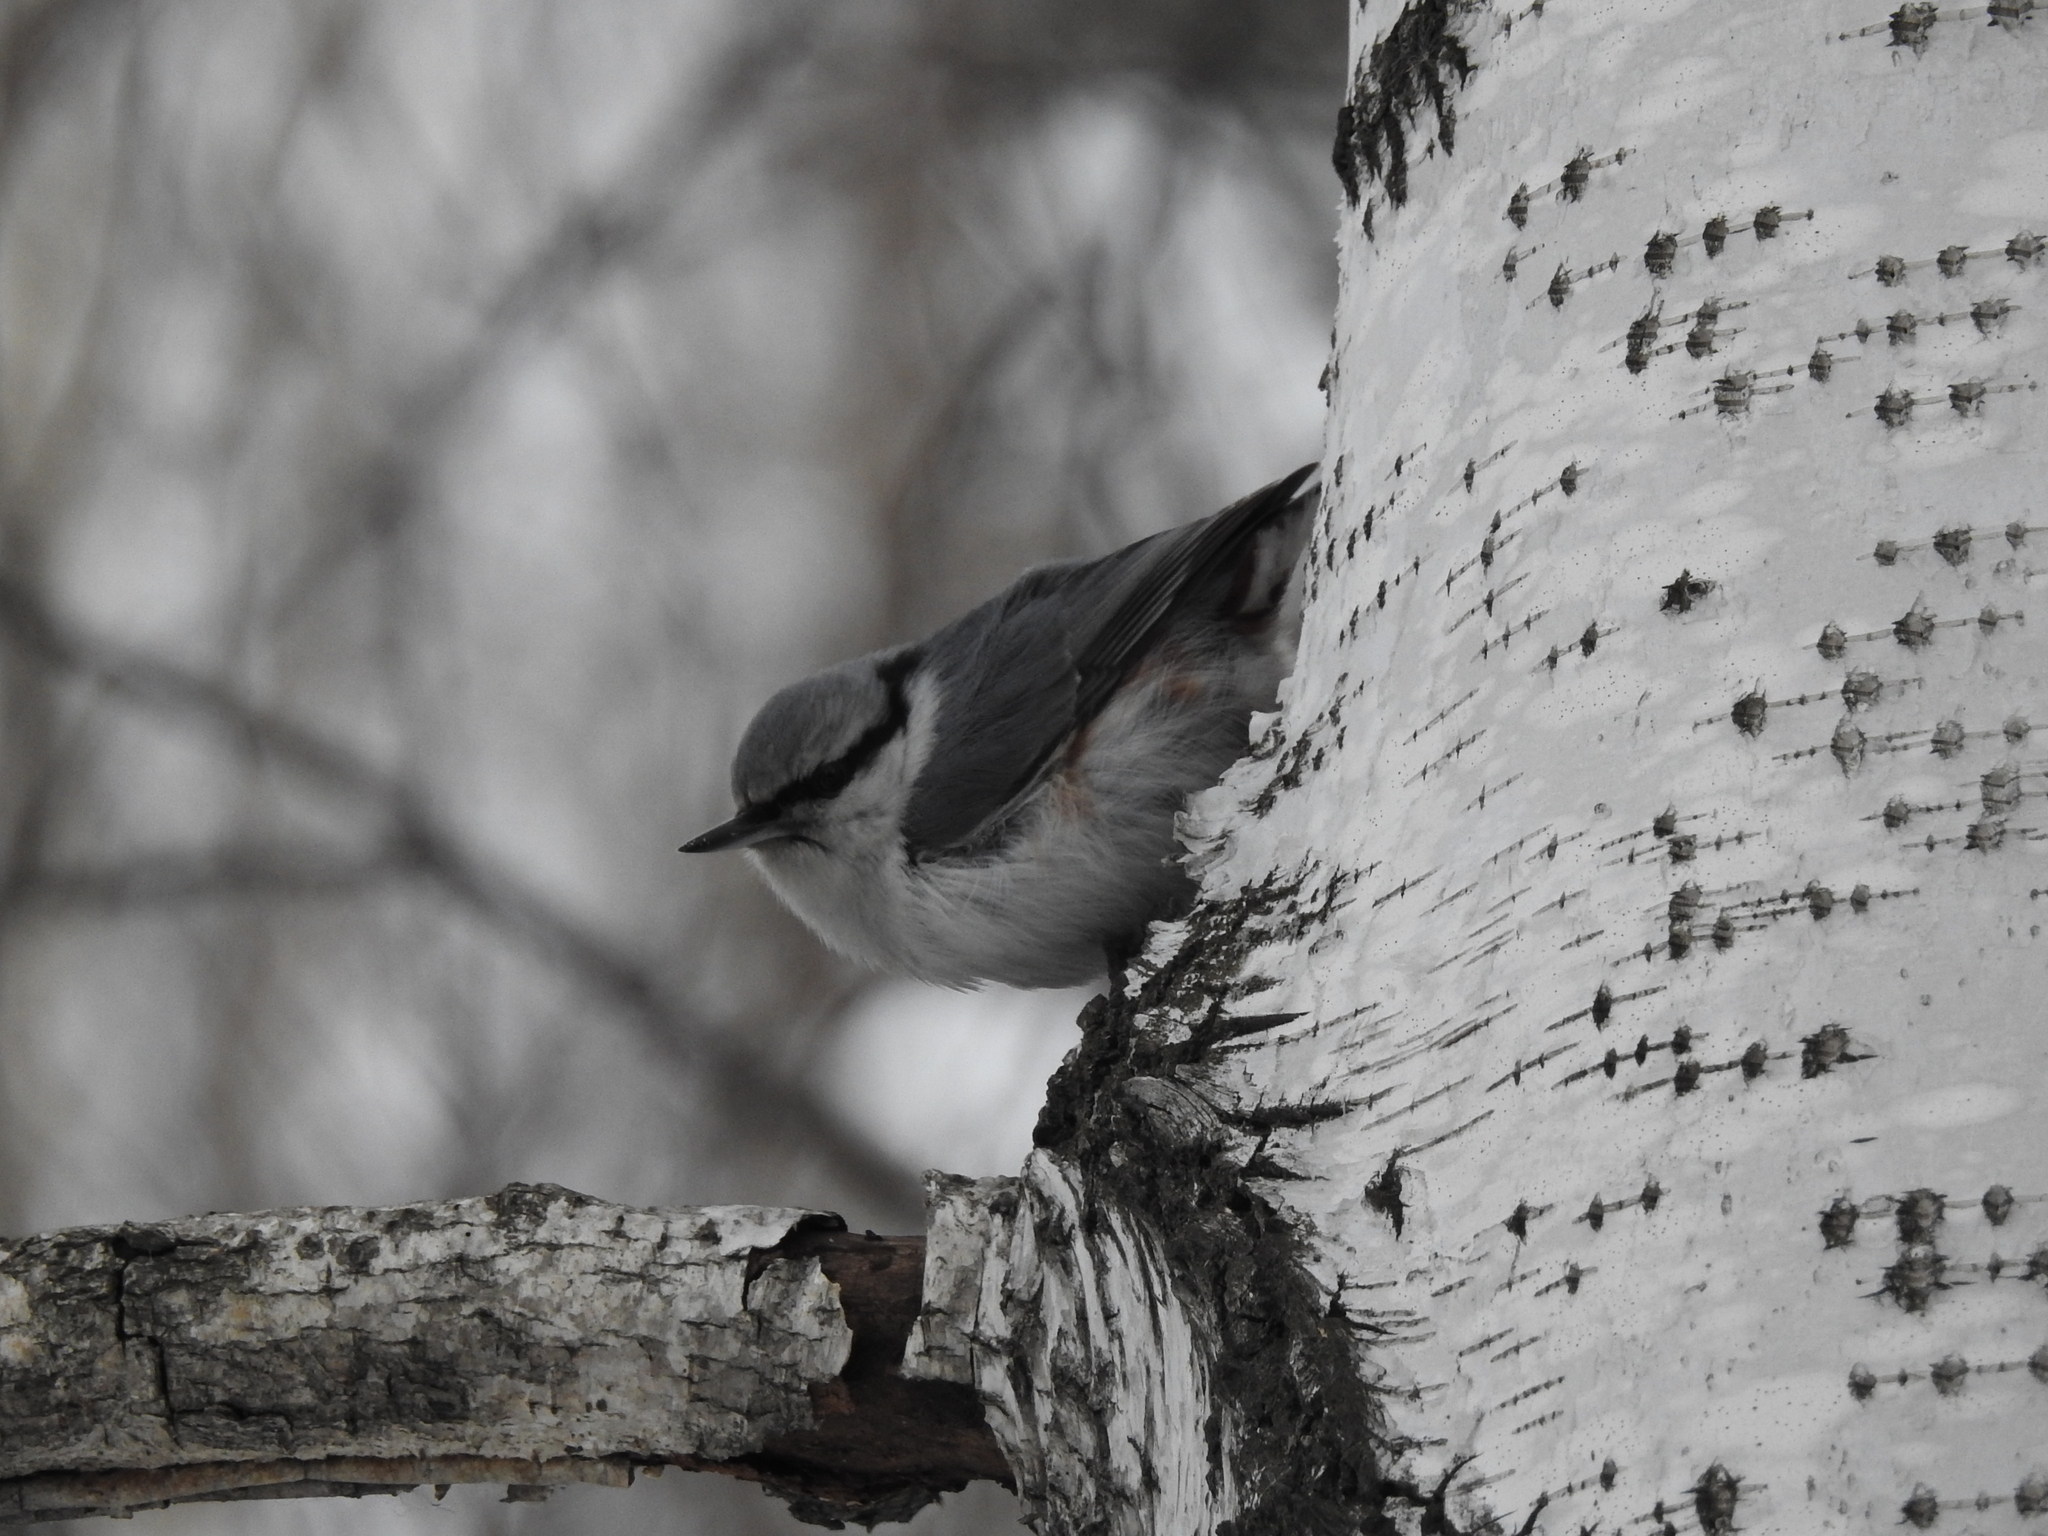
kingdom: Animalia
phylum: Chordata
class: Aves
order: Passeriformes
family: Sittidae
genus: Sitta
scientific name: Sitta europaea
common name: Eurasian nuthatch
